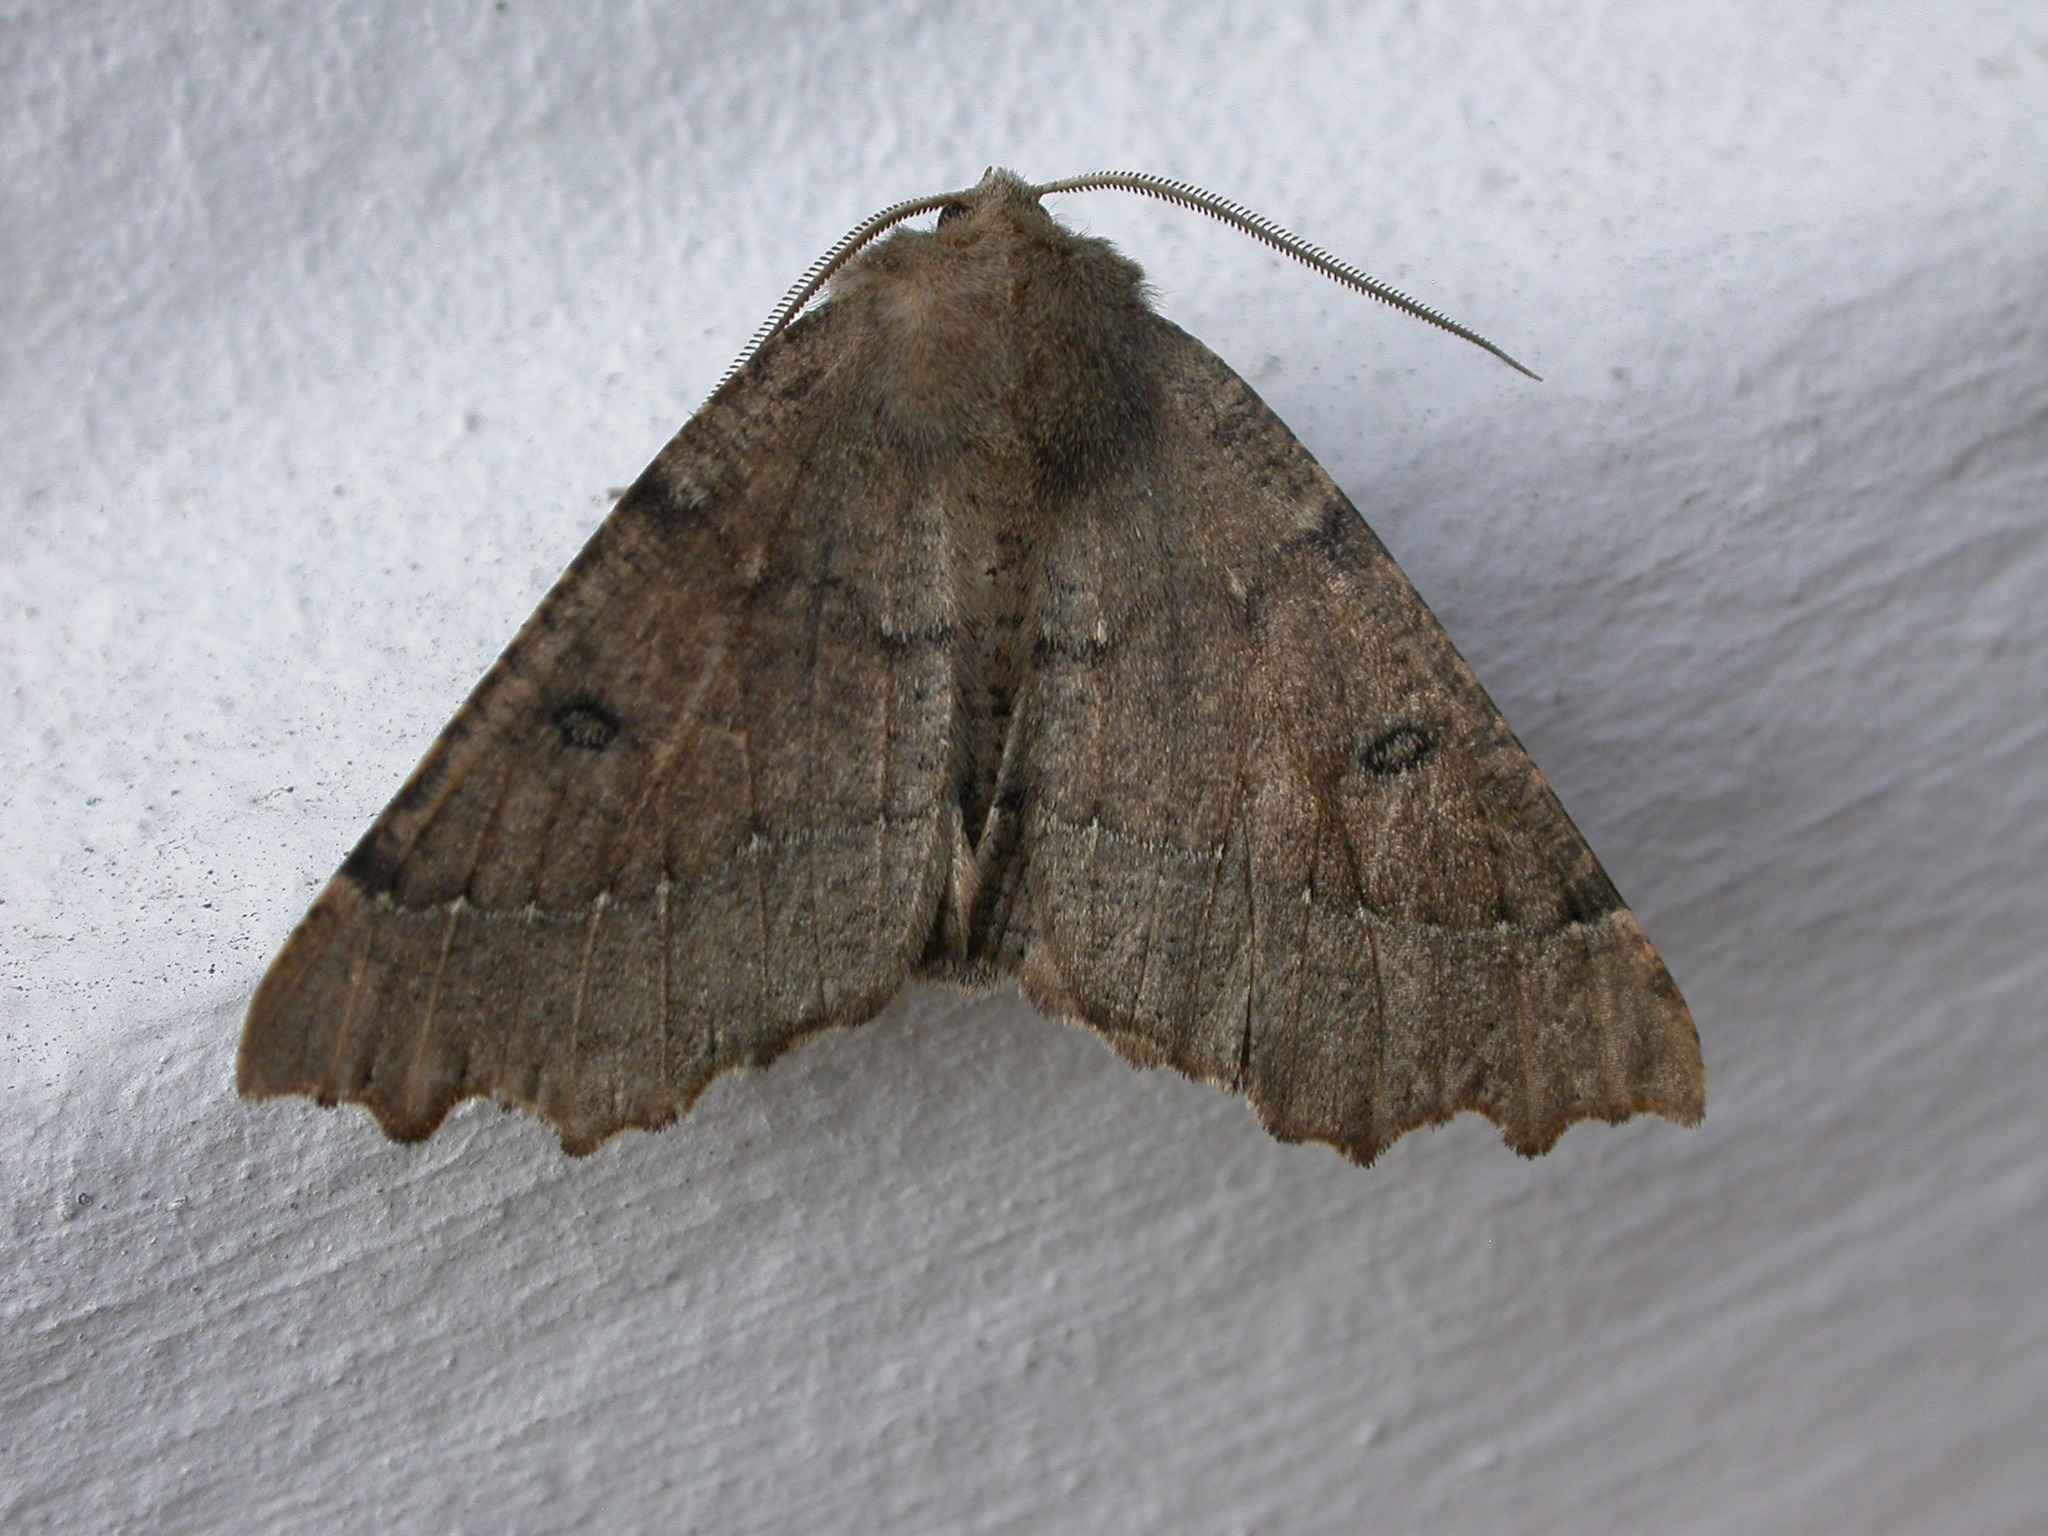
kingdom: Animalia
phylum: Arthropoda
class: Insecta
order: Lepidoptera
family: Geometridae
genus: Odontopera
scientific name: Odontopera bidentata
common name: Scalloped hazel
